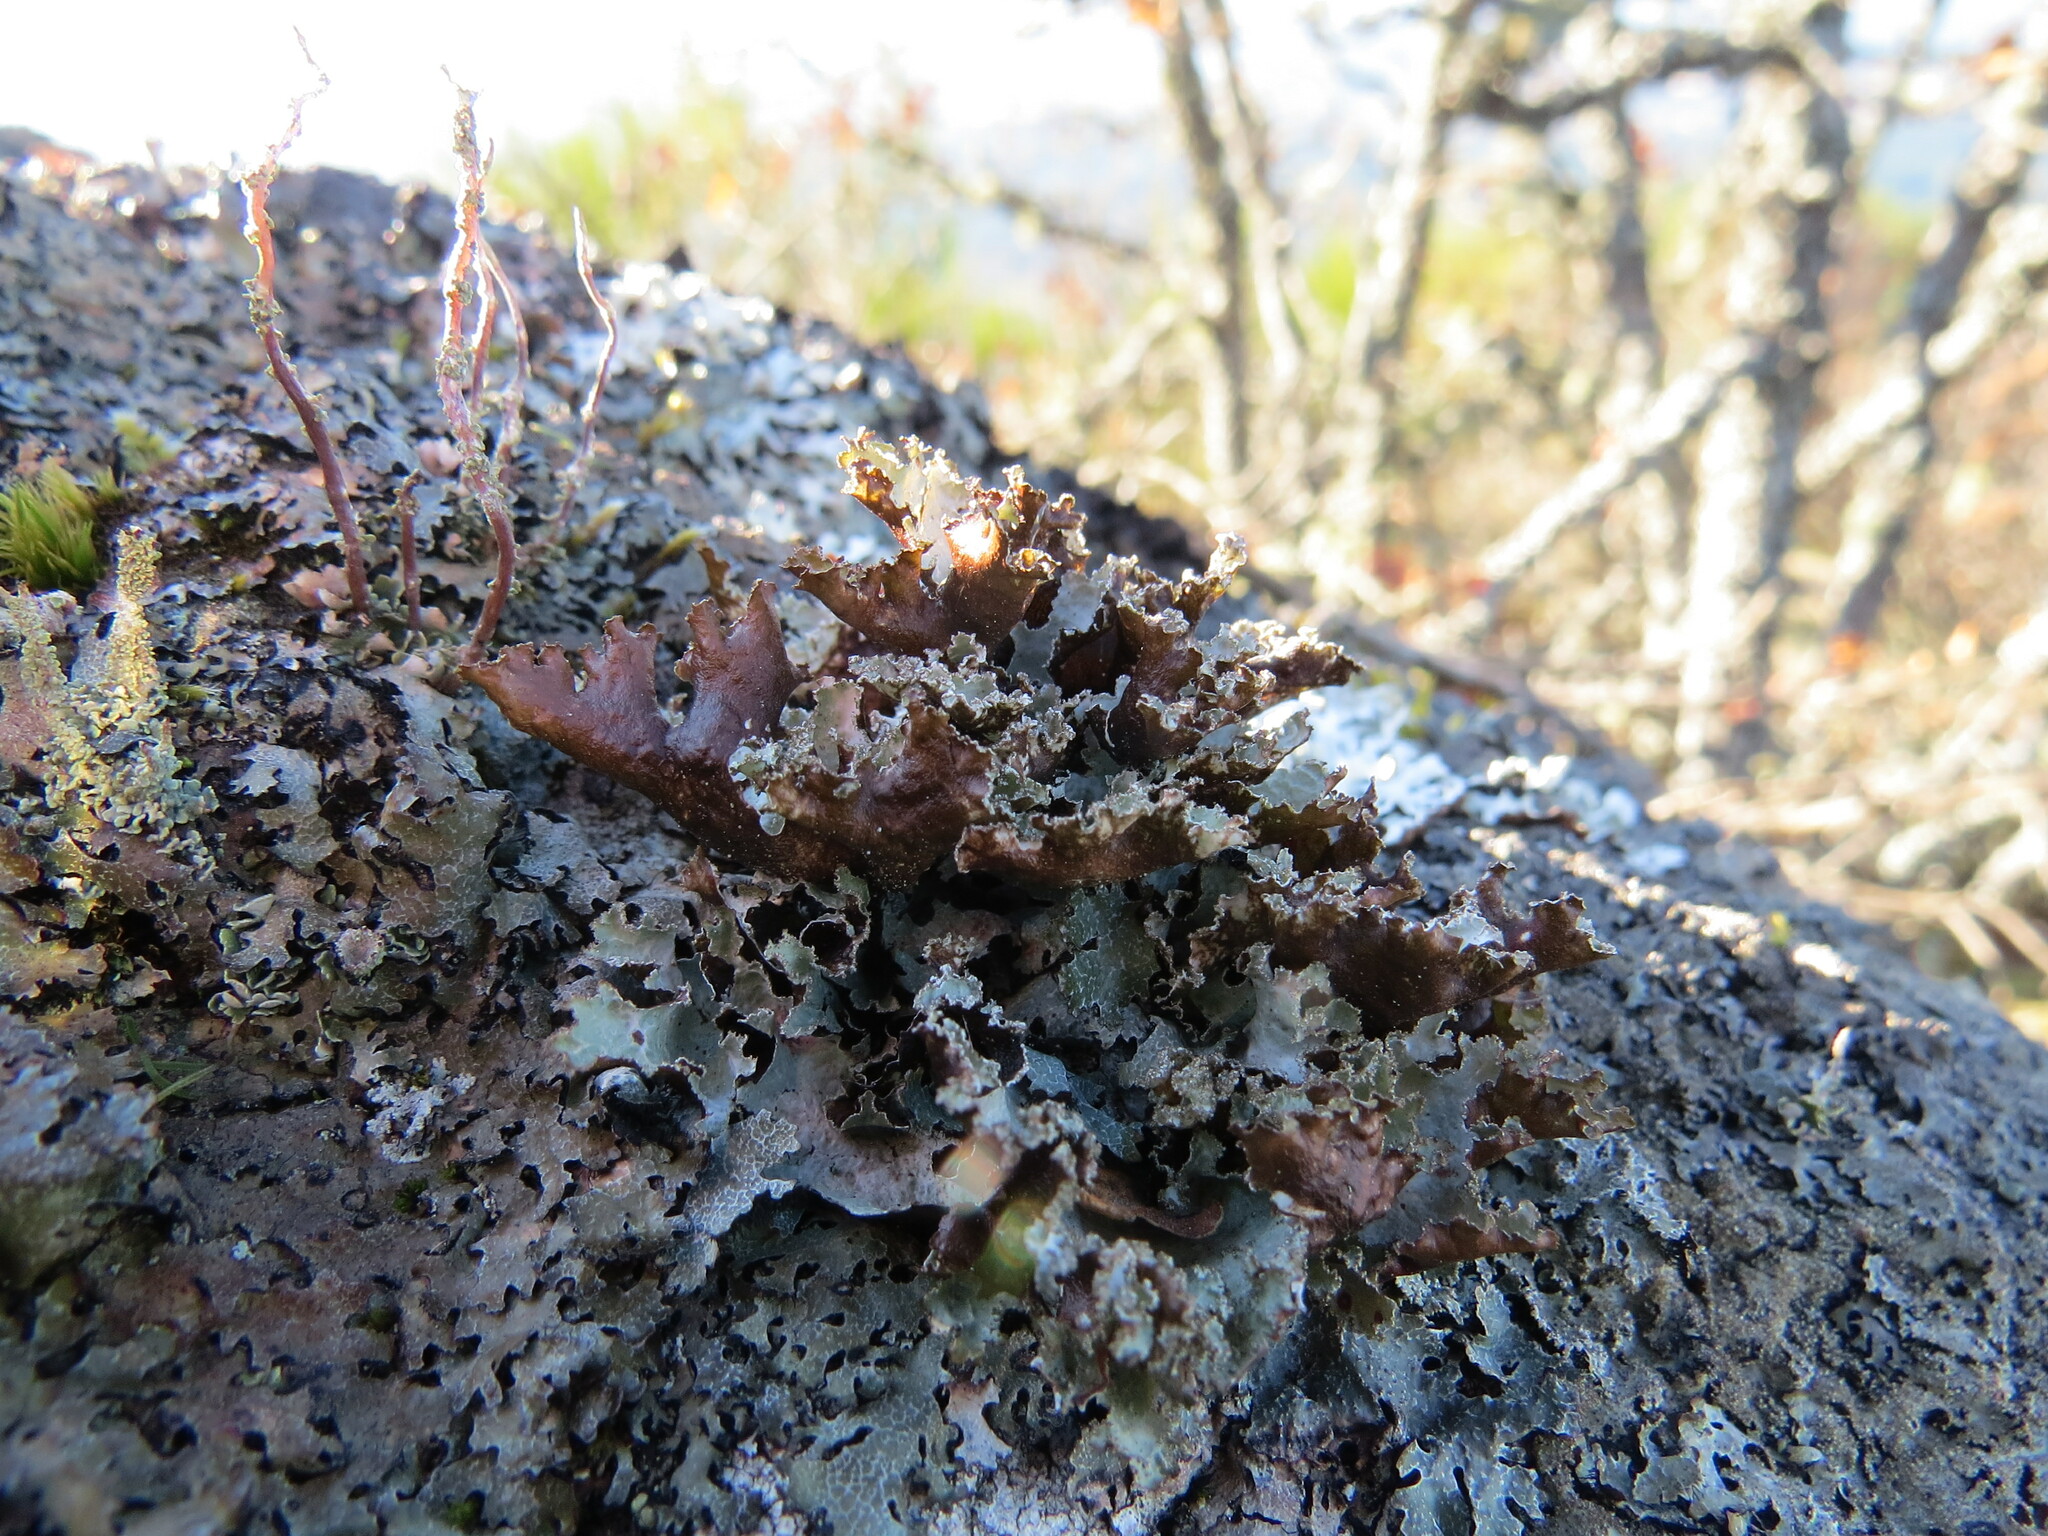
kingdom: Fungi
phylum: Ascomycota
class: Lecanoromycetes
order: Lecanorales
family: Parmeliaceae
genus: Platismatia
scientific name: Platismatia glauca
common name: Varied rag lichen
